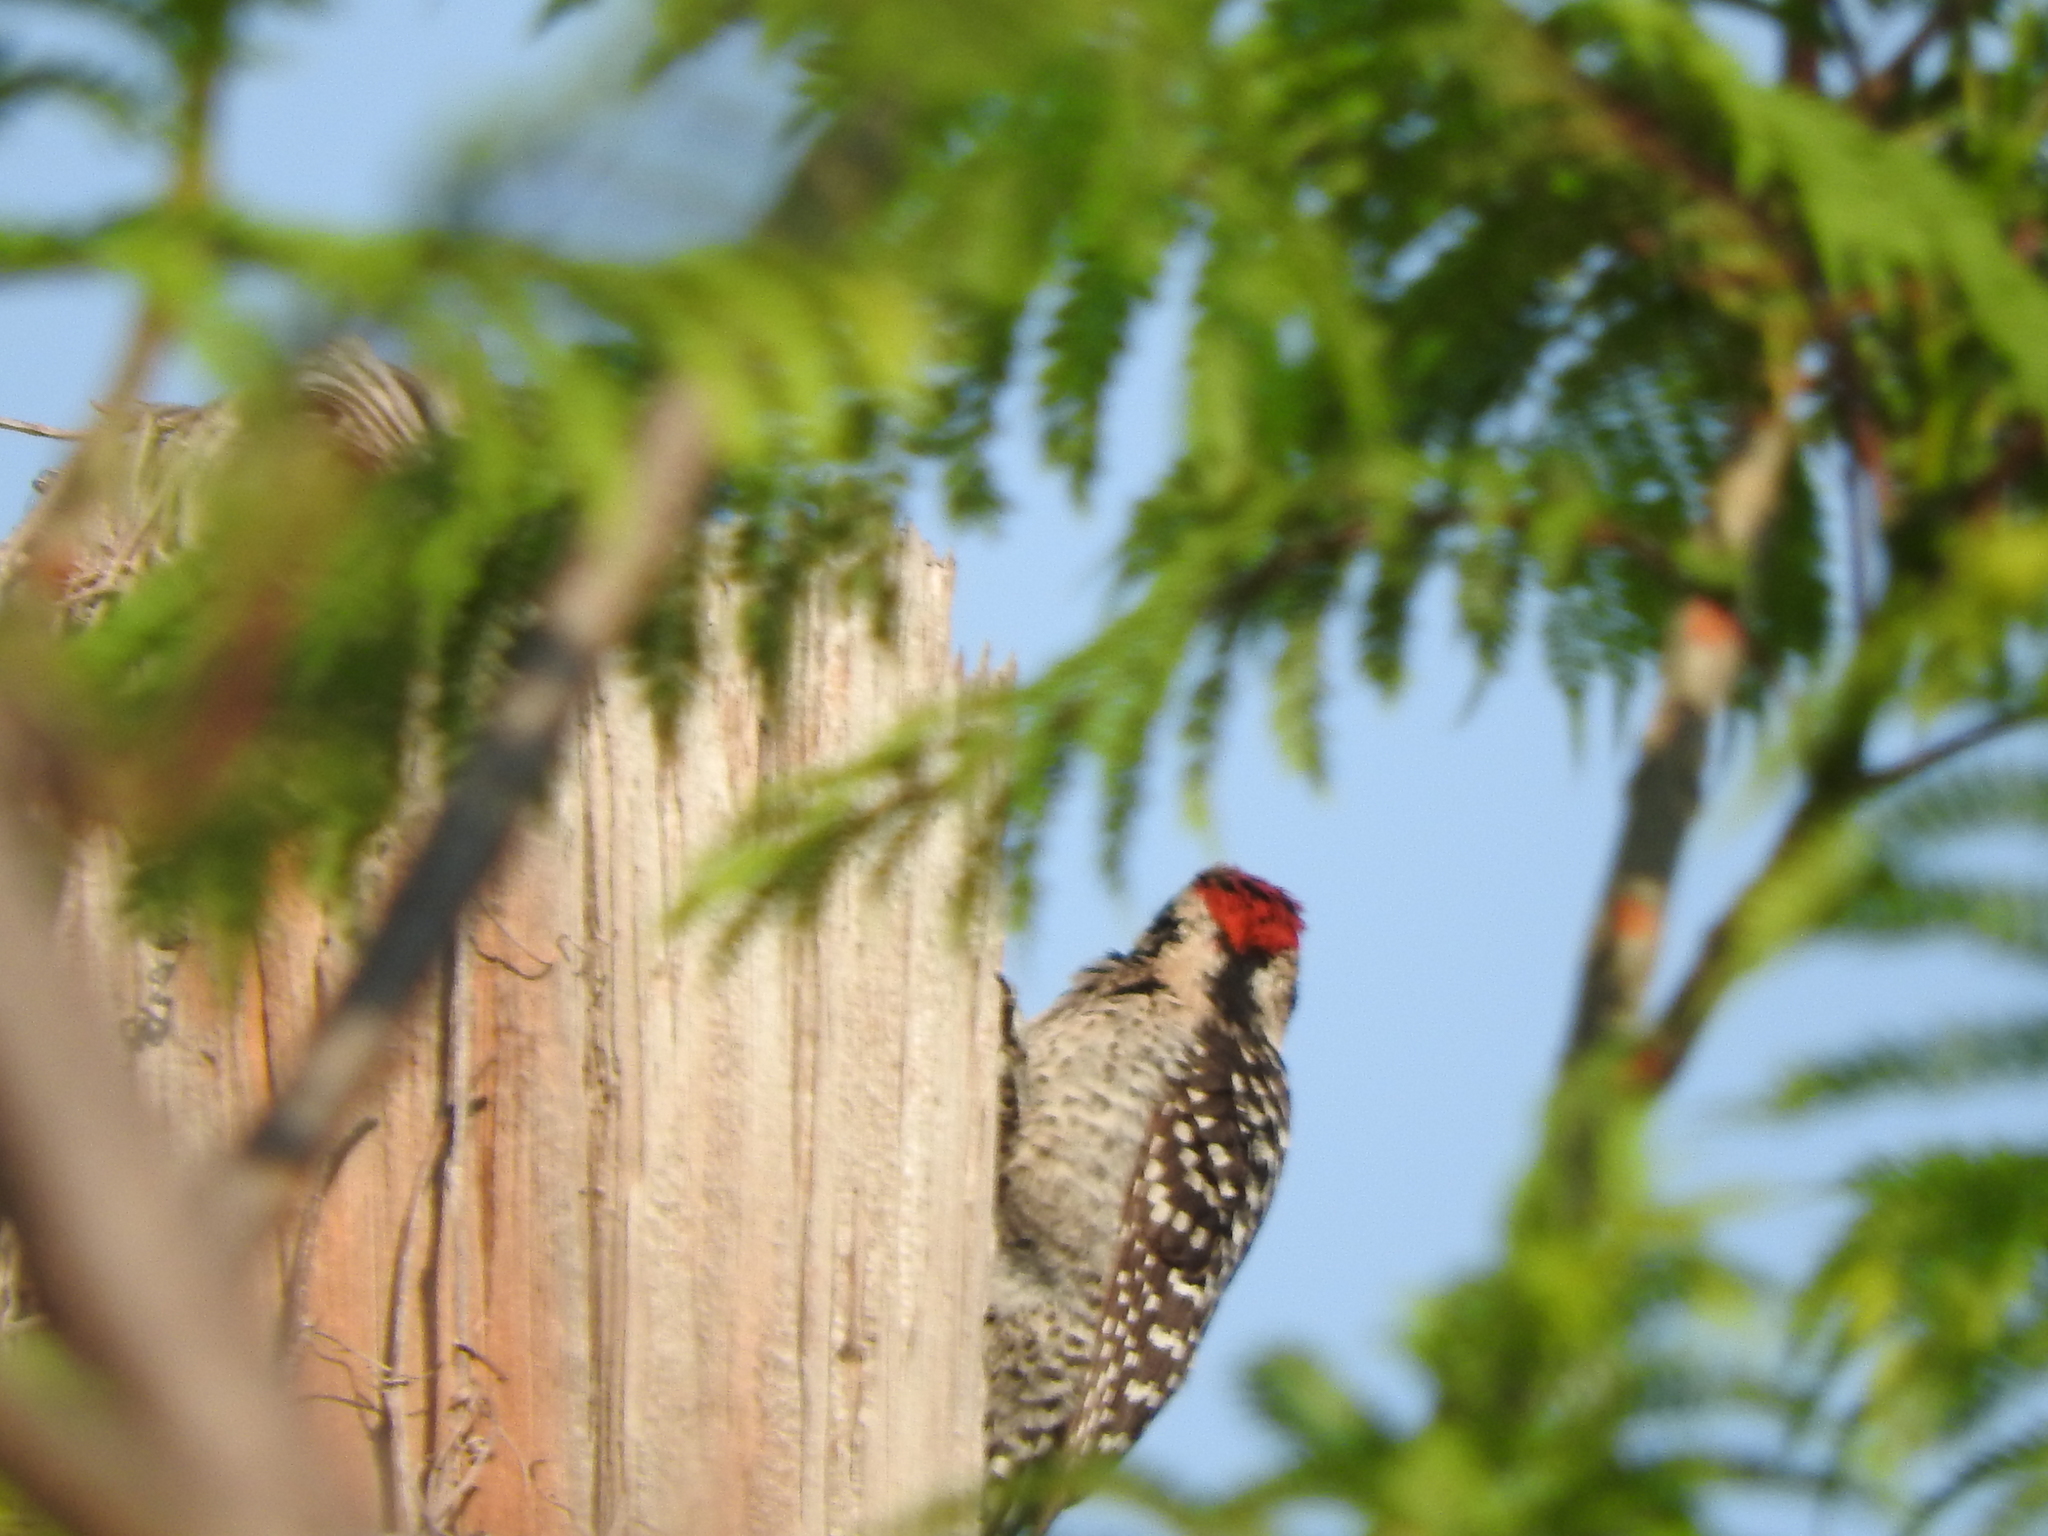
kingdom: Animalia
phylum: Chordata
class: Aves
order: Piciformes
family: Picidae
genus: Dryobates
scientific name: Dryobates scalaris
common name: Ladder-backed woodpecker
